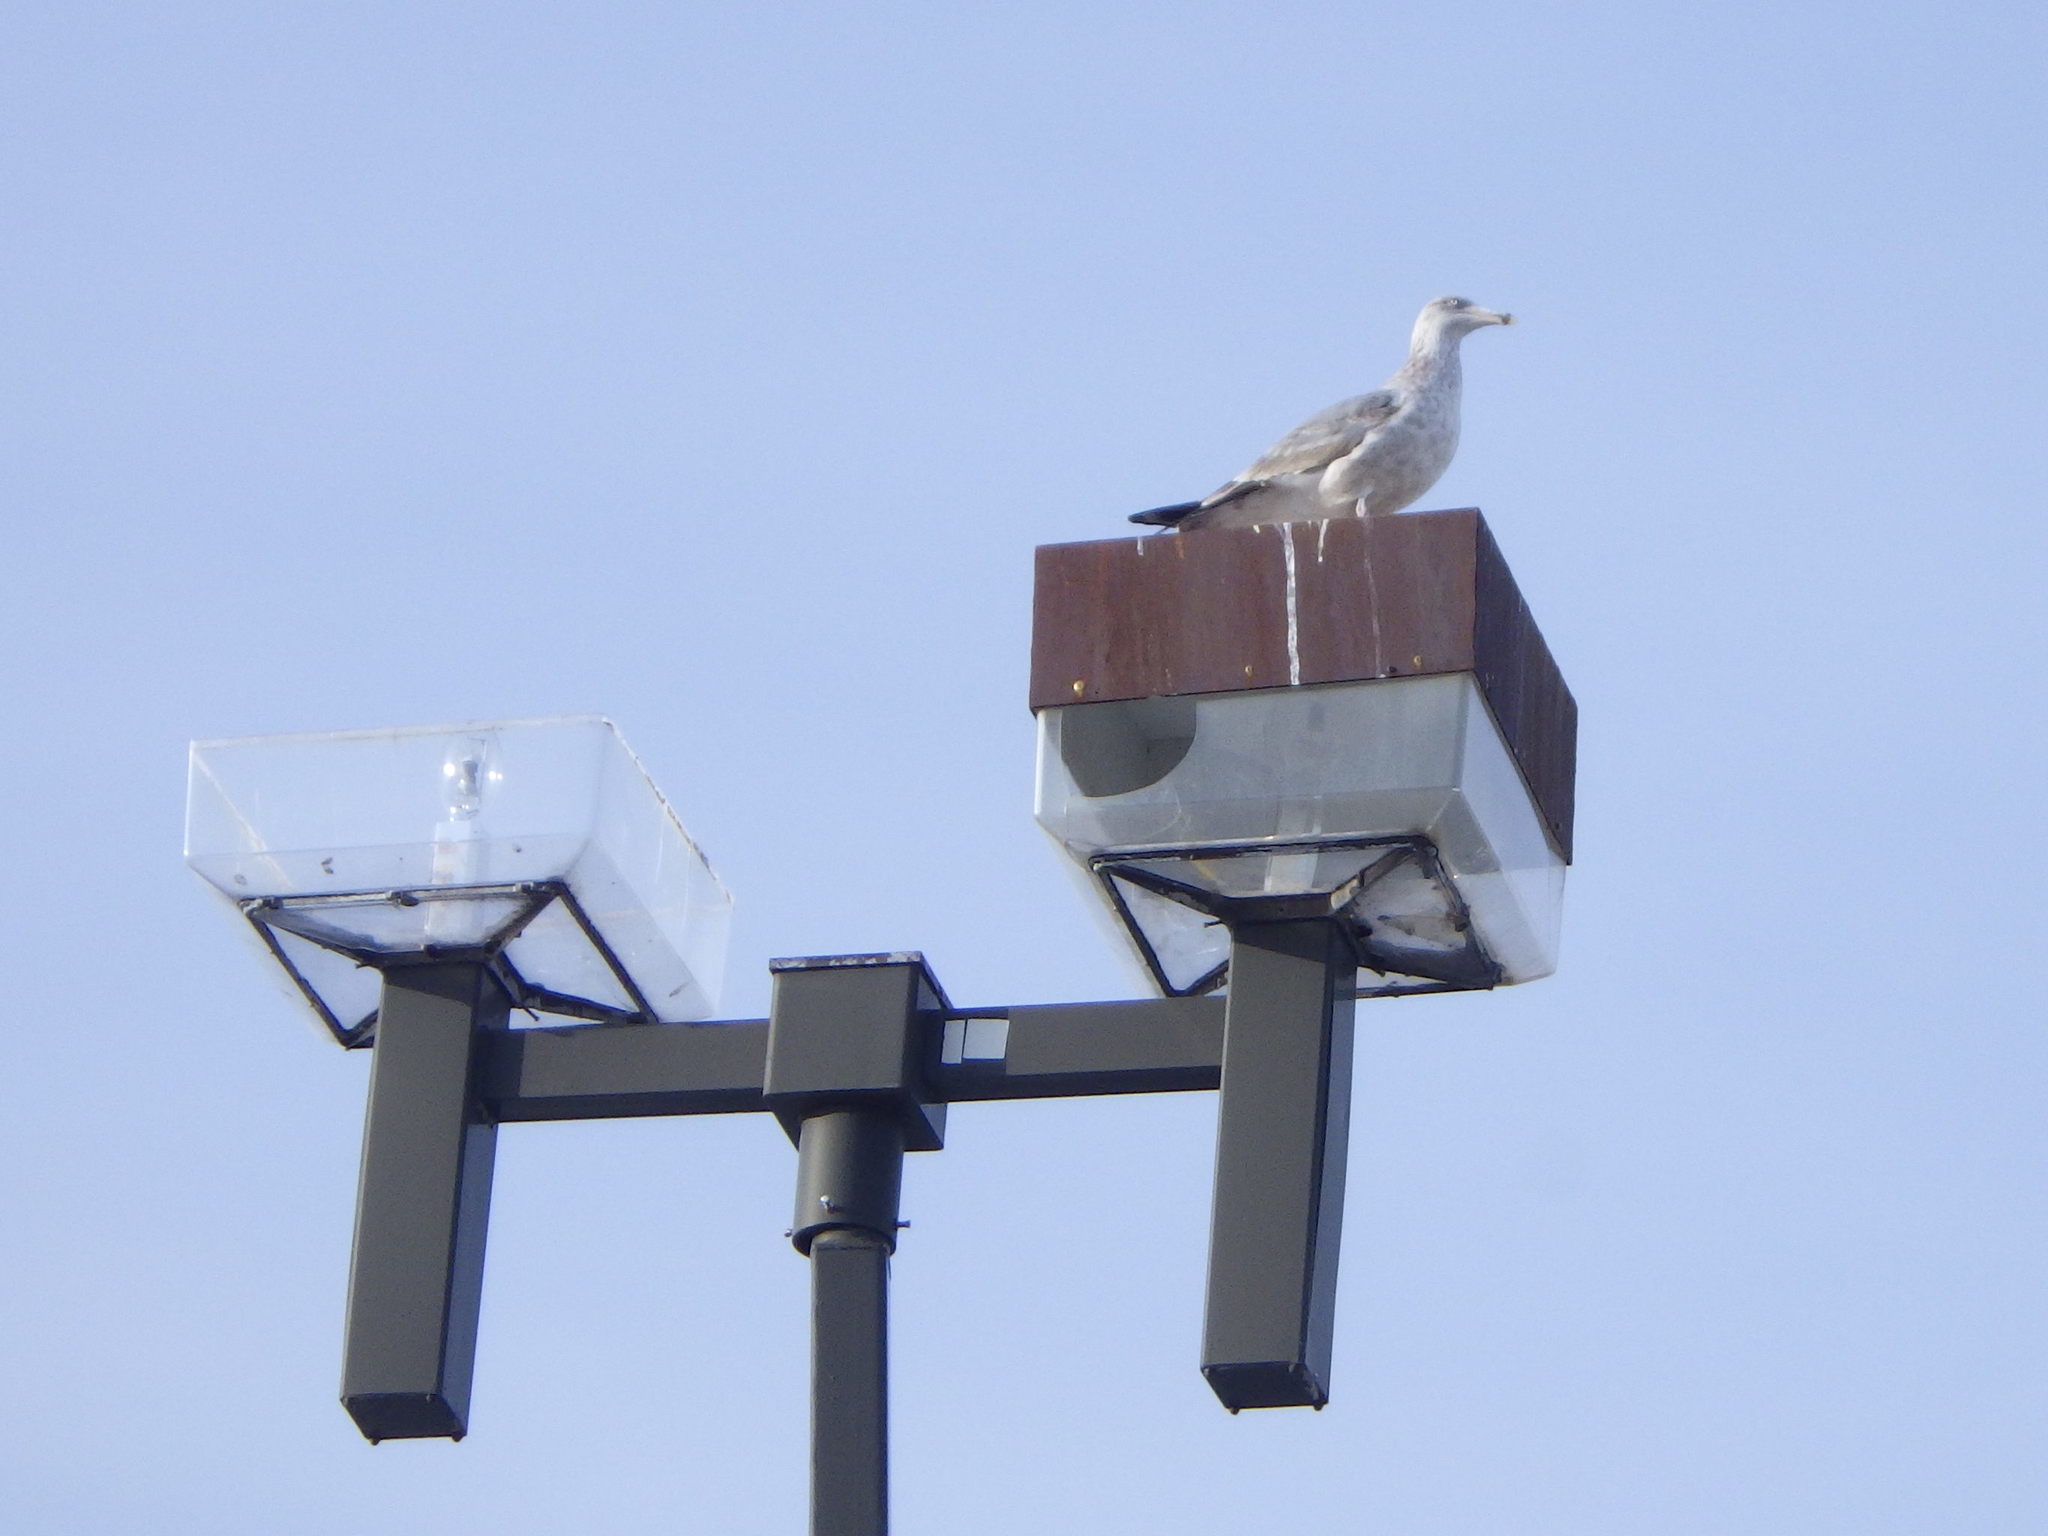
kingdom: Animalia
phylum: Chordata
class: Aves
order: Charadriiformes
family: Laridae
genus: Larus
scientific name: Larus argentatus
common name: Herring gull
